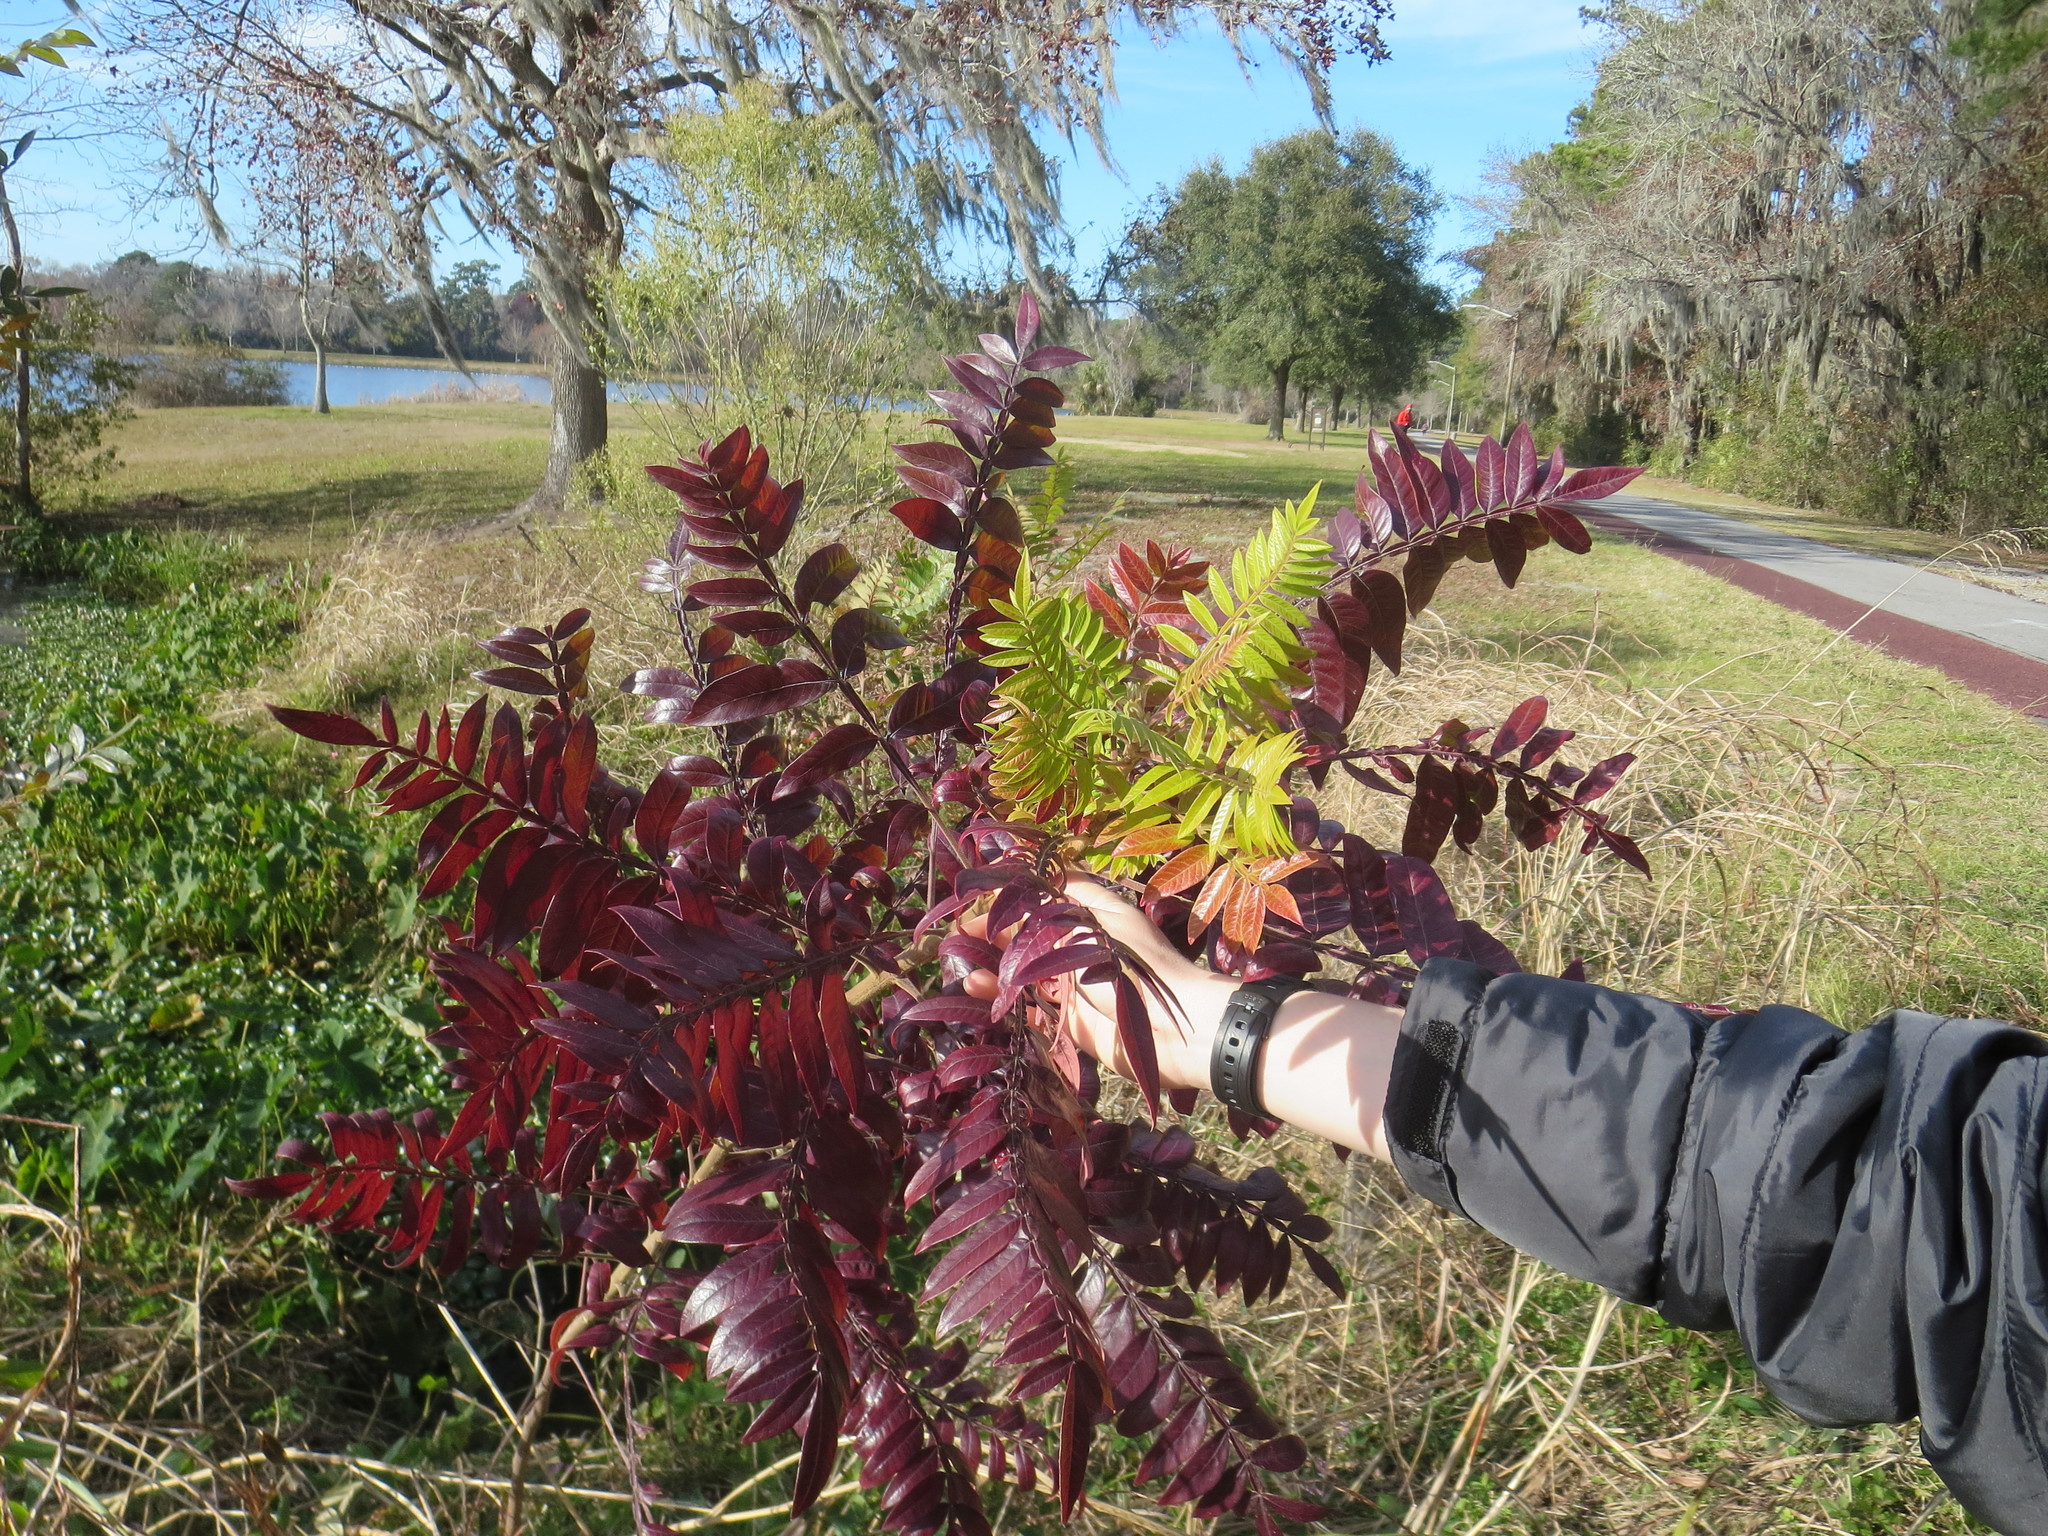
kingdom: Plantae
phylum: Tracheophyta
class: Magnoliopsida
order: Sapindales
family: Anacardiaceae
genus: Rhus
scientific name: Rhus copallina
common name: Shining sumac
